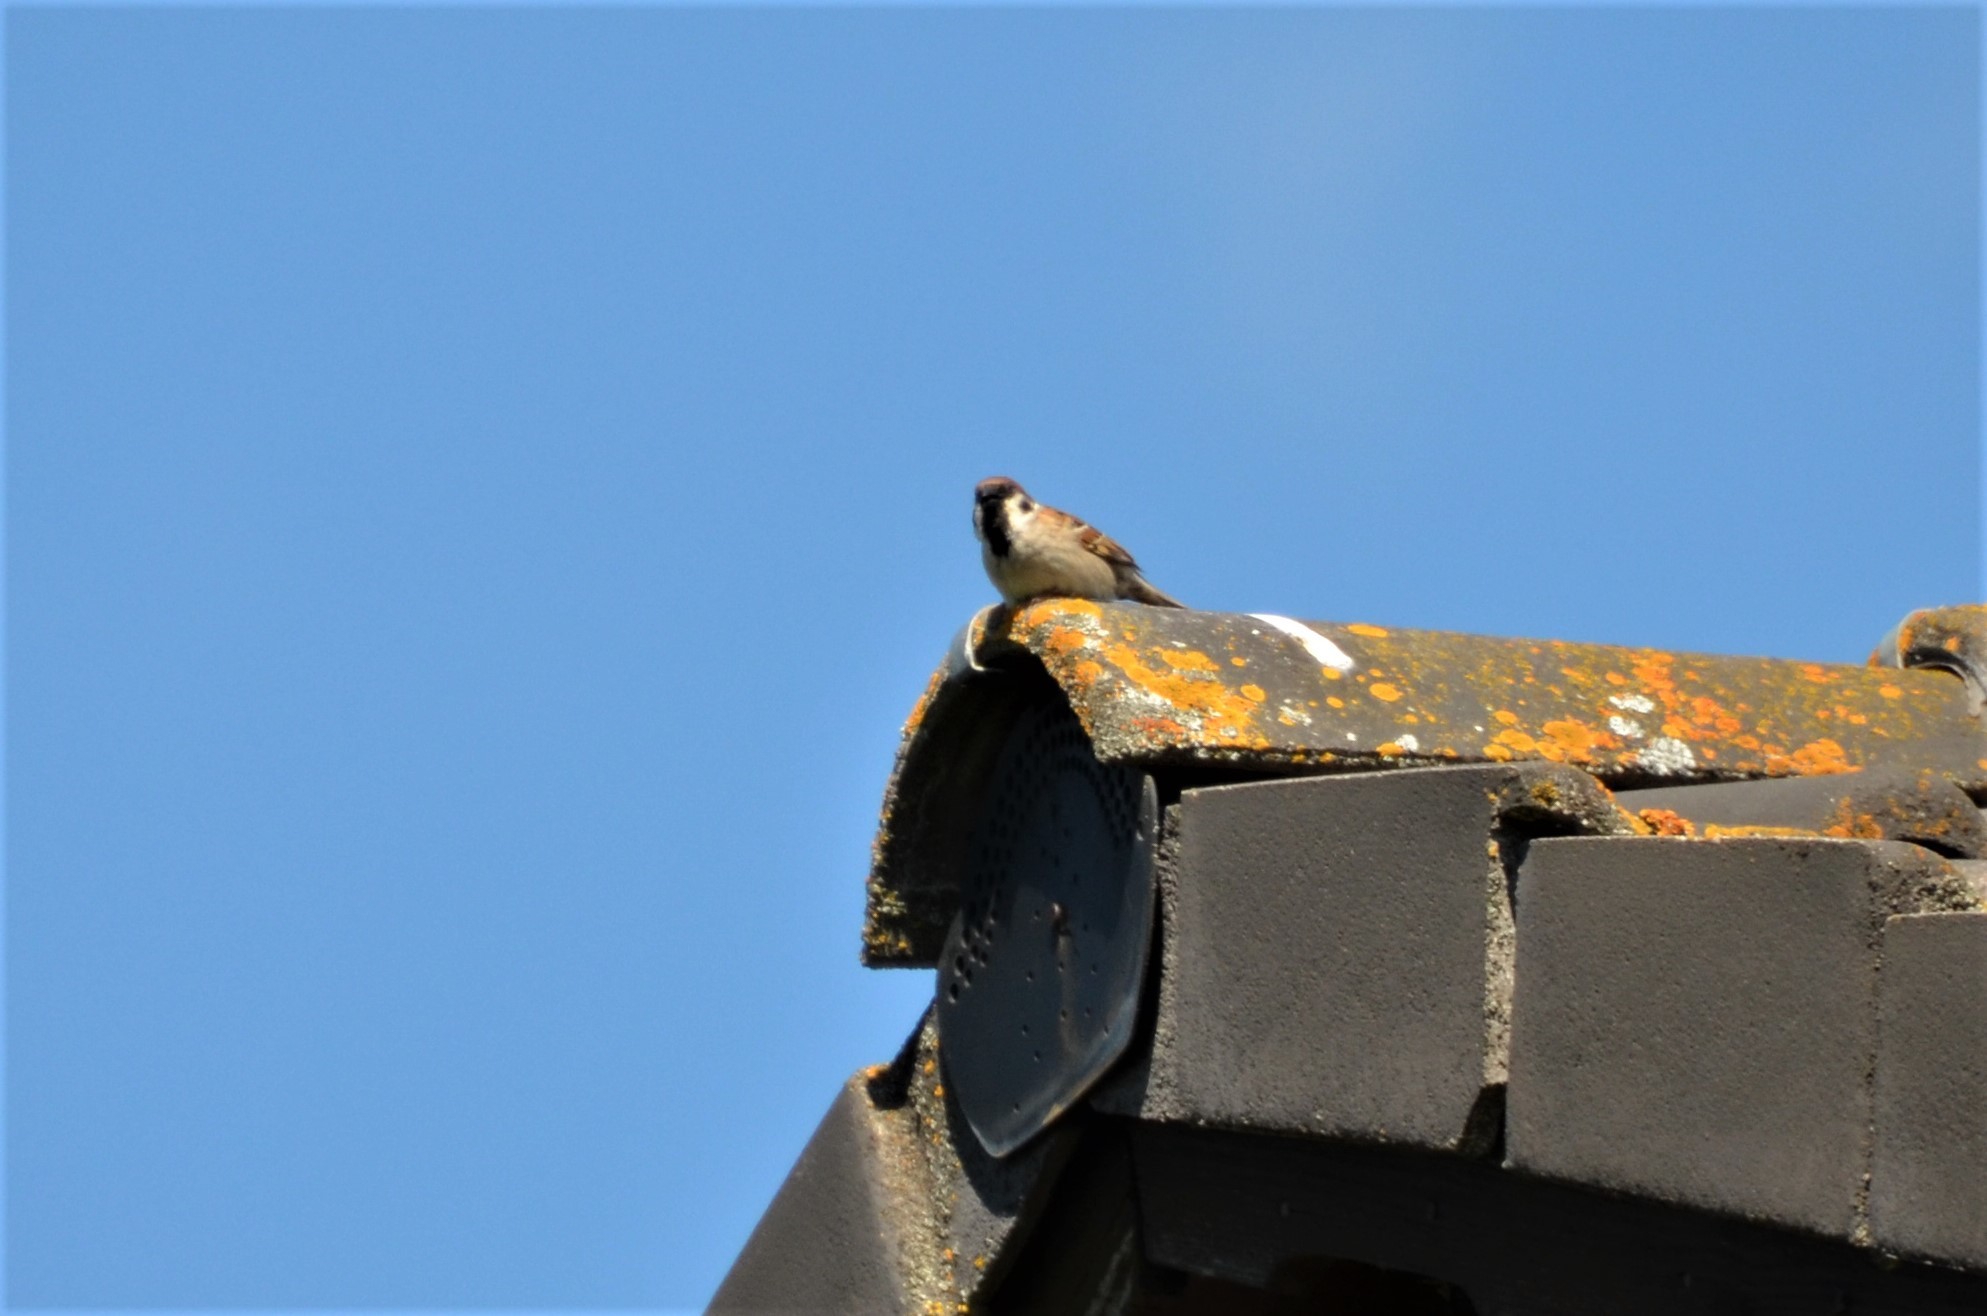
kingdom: Animalia
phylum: Chordata
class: Aves
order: Passeriformes
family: Passeridae
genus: Passer
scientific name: Passer montanus
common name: Eurasian tree sparrow
